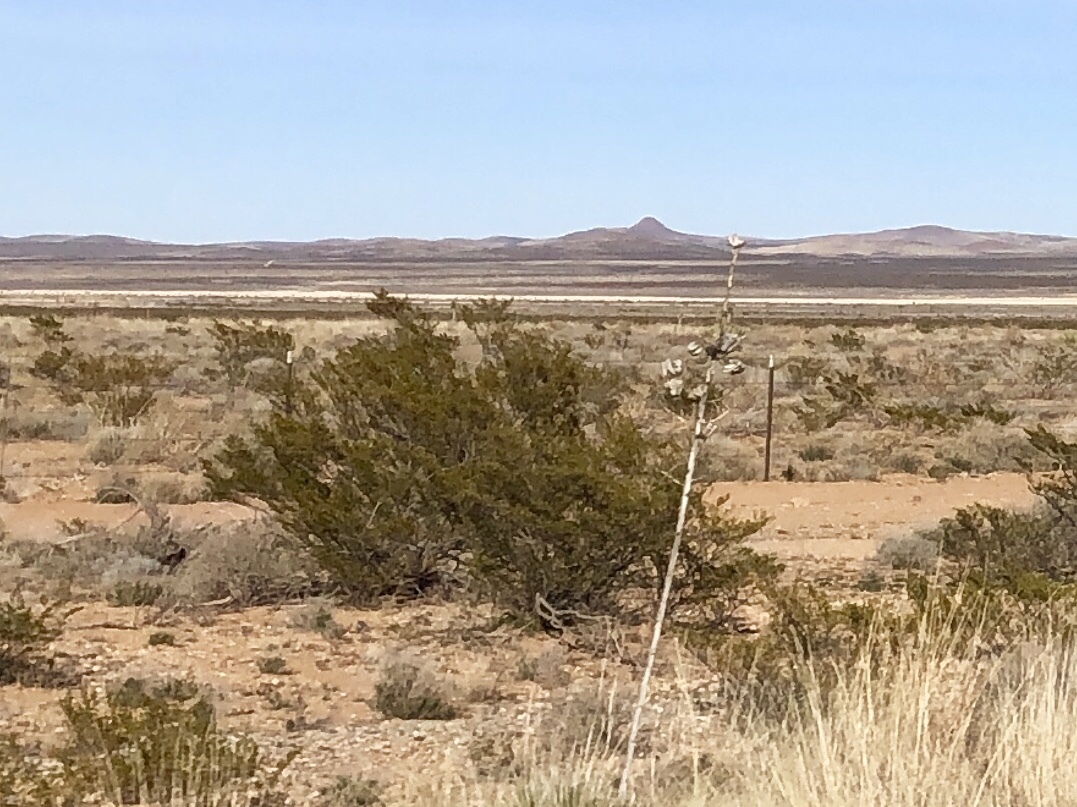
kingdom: Plantae
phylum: Tracheophyta
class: Magnoliopsida
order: Zygophyllales
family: Zygophyllaceae
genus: Larrea
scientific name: Larrea tridentata
